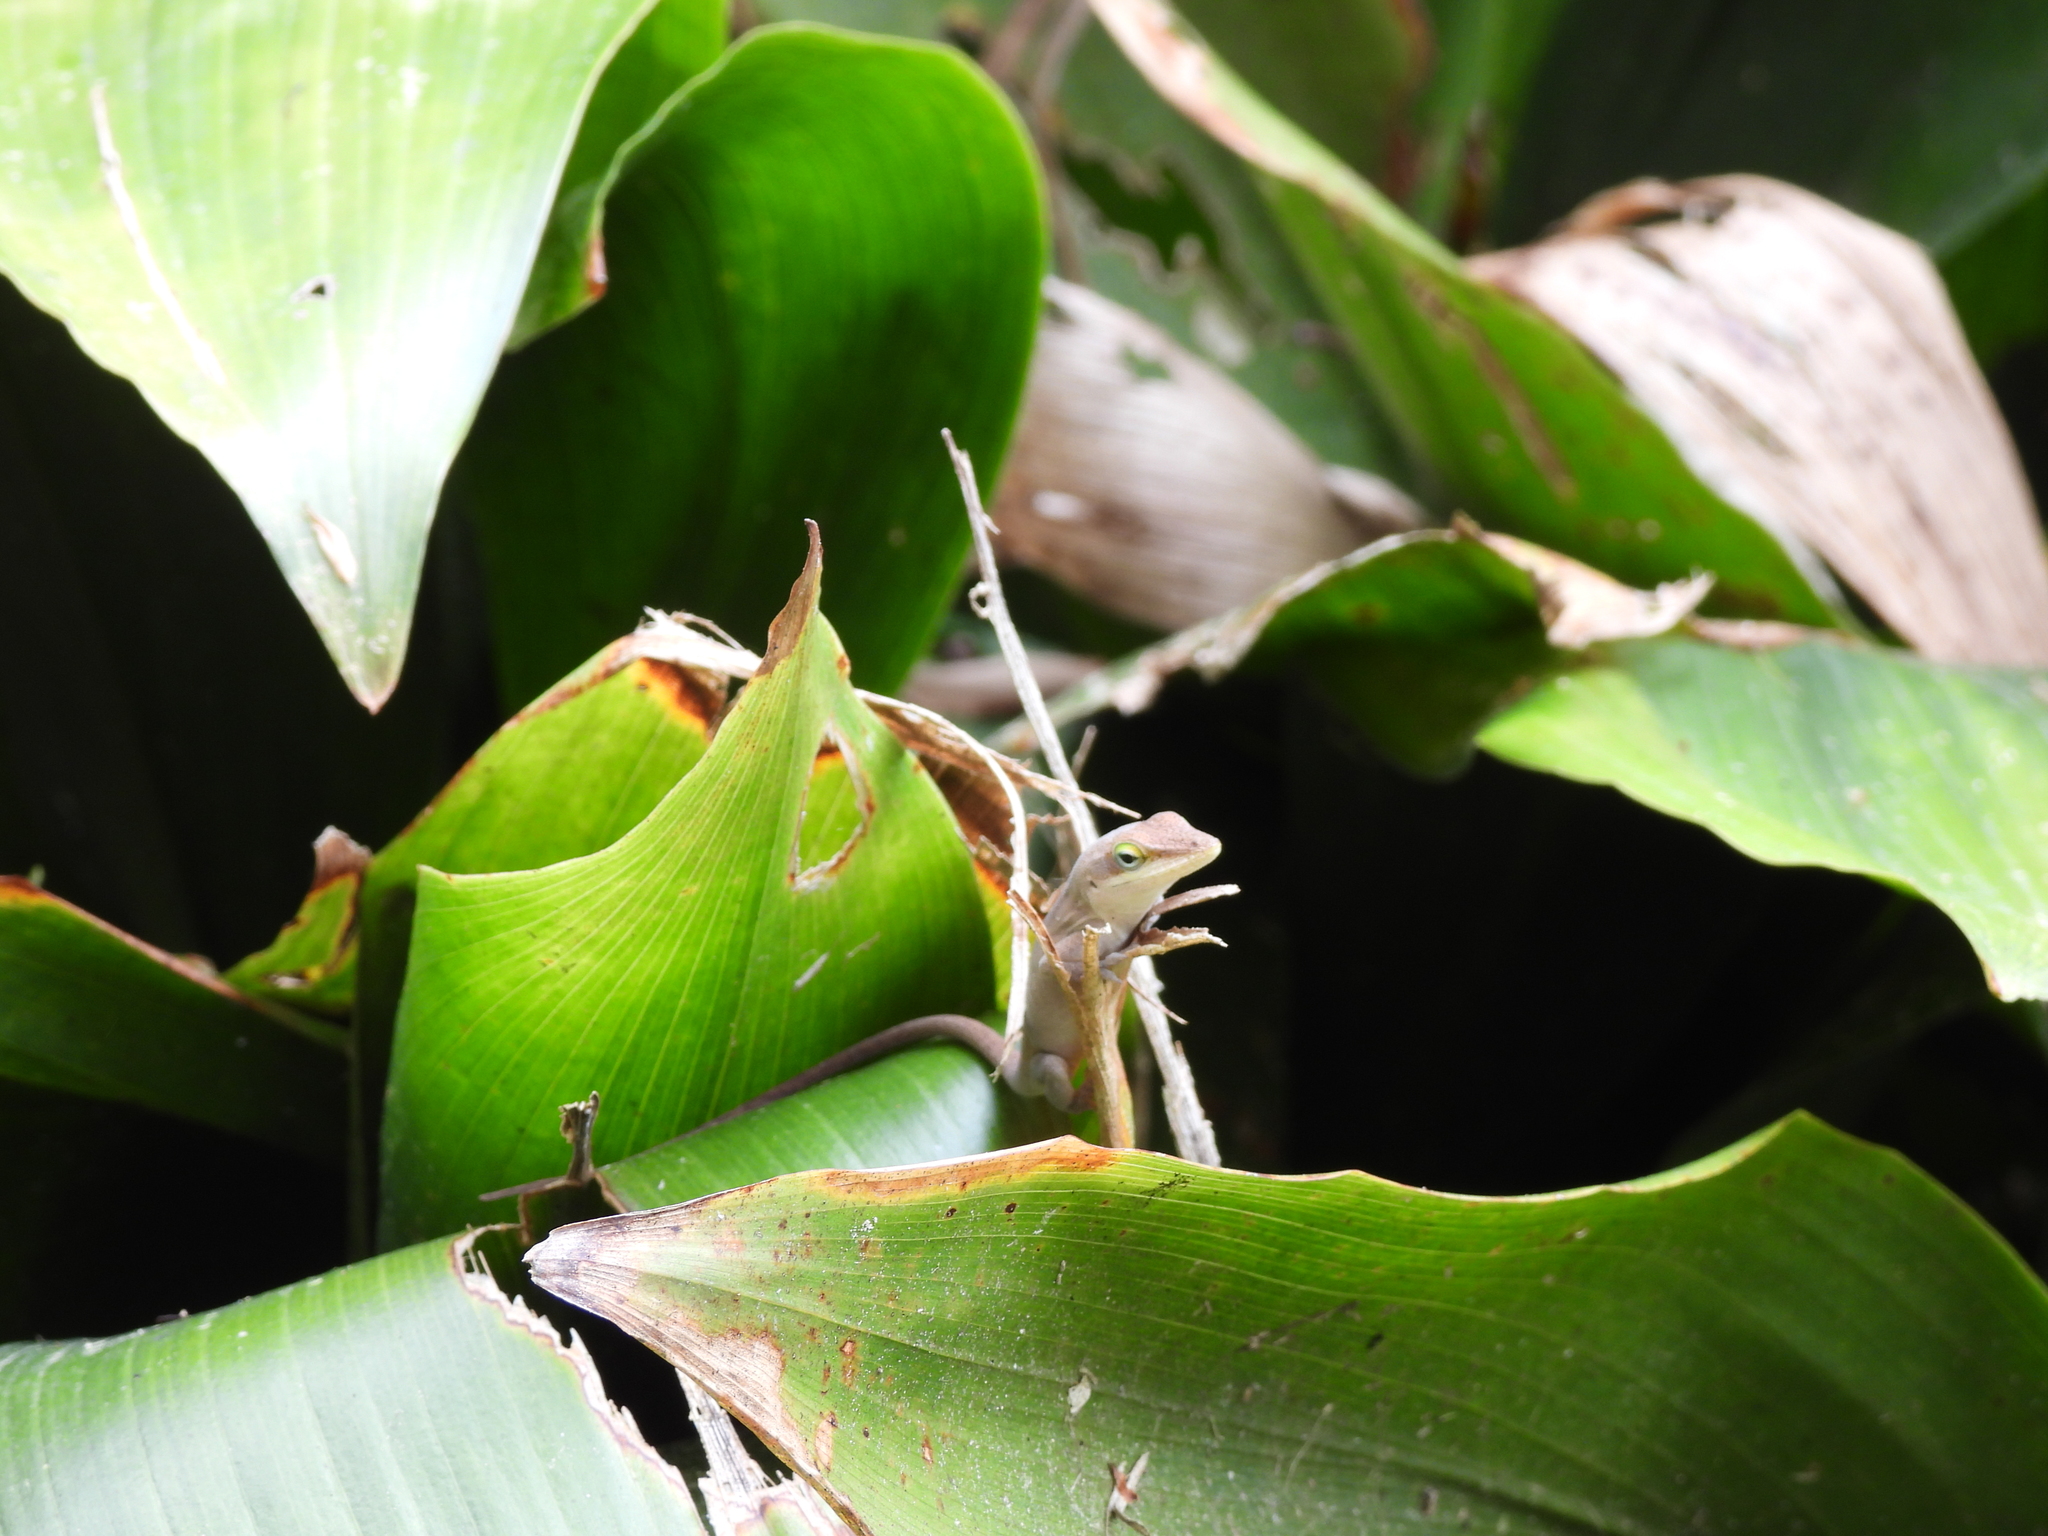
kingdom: Animalia
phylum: Chordata
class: Squamata
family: Dactyloidae
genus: Anolis
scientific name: Anolis carolinensis
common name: Green anole
